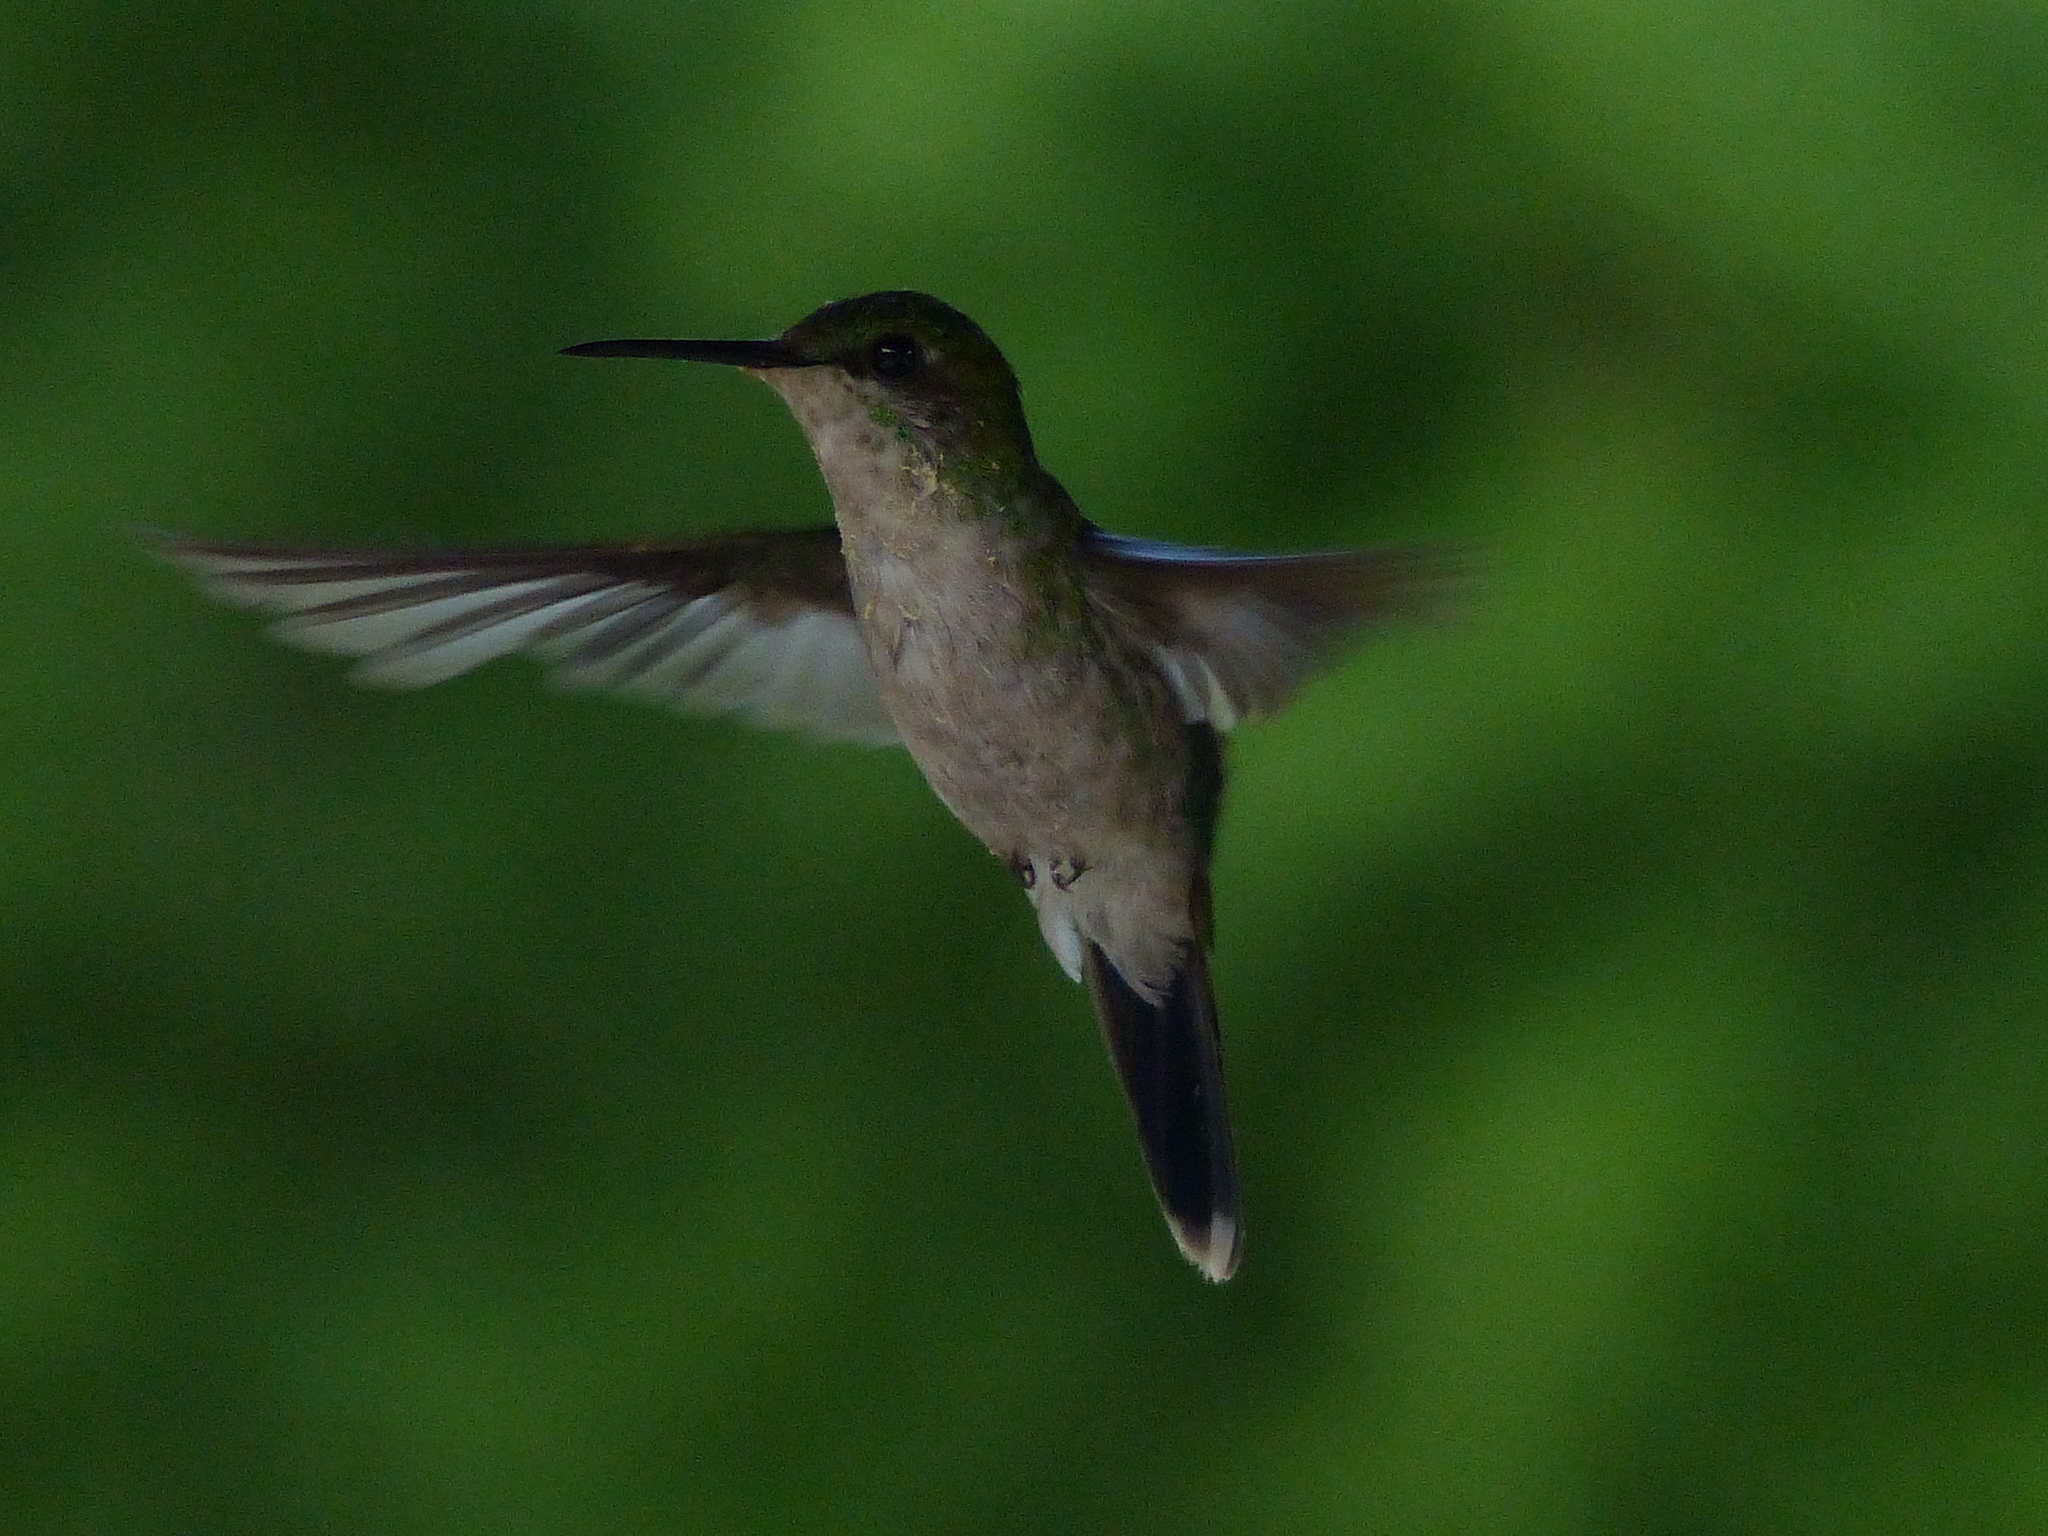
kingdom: Animalia
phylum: Chordata
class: Aves
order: Apodiformes
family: Trochilidae
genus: Thalurania
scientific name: Thalurania glaucopis
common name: Violet-capped woodnymph
